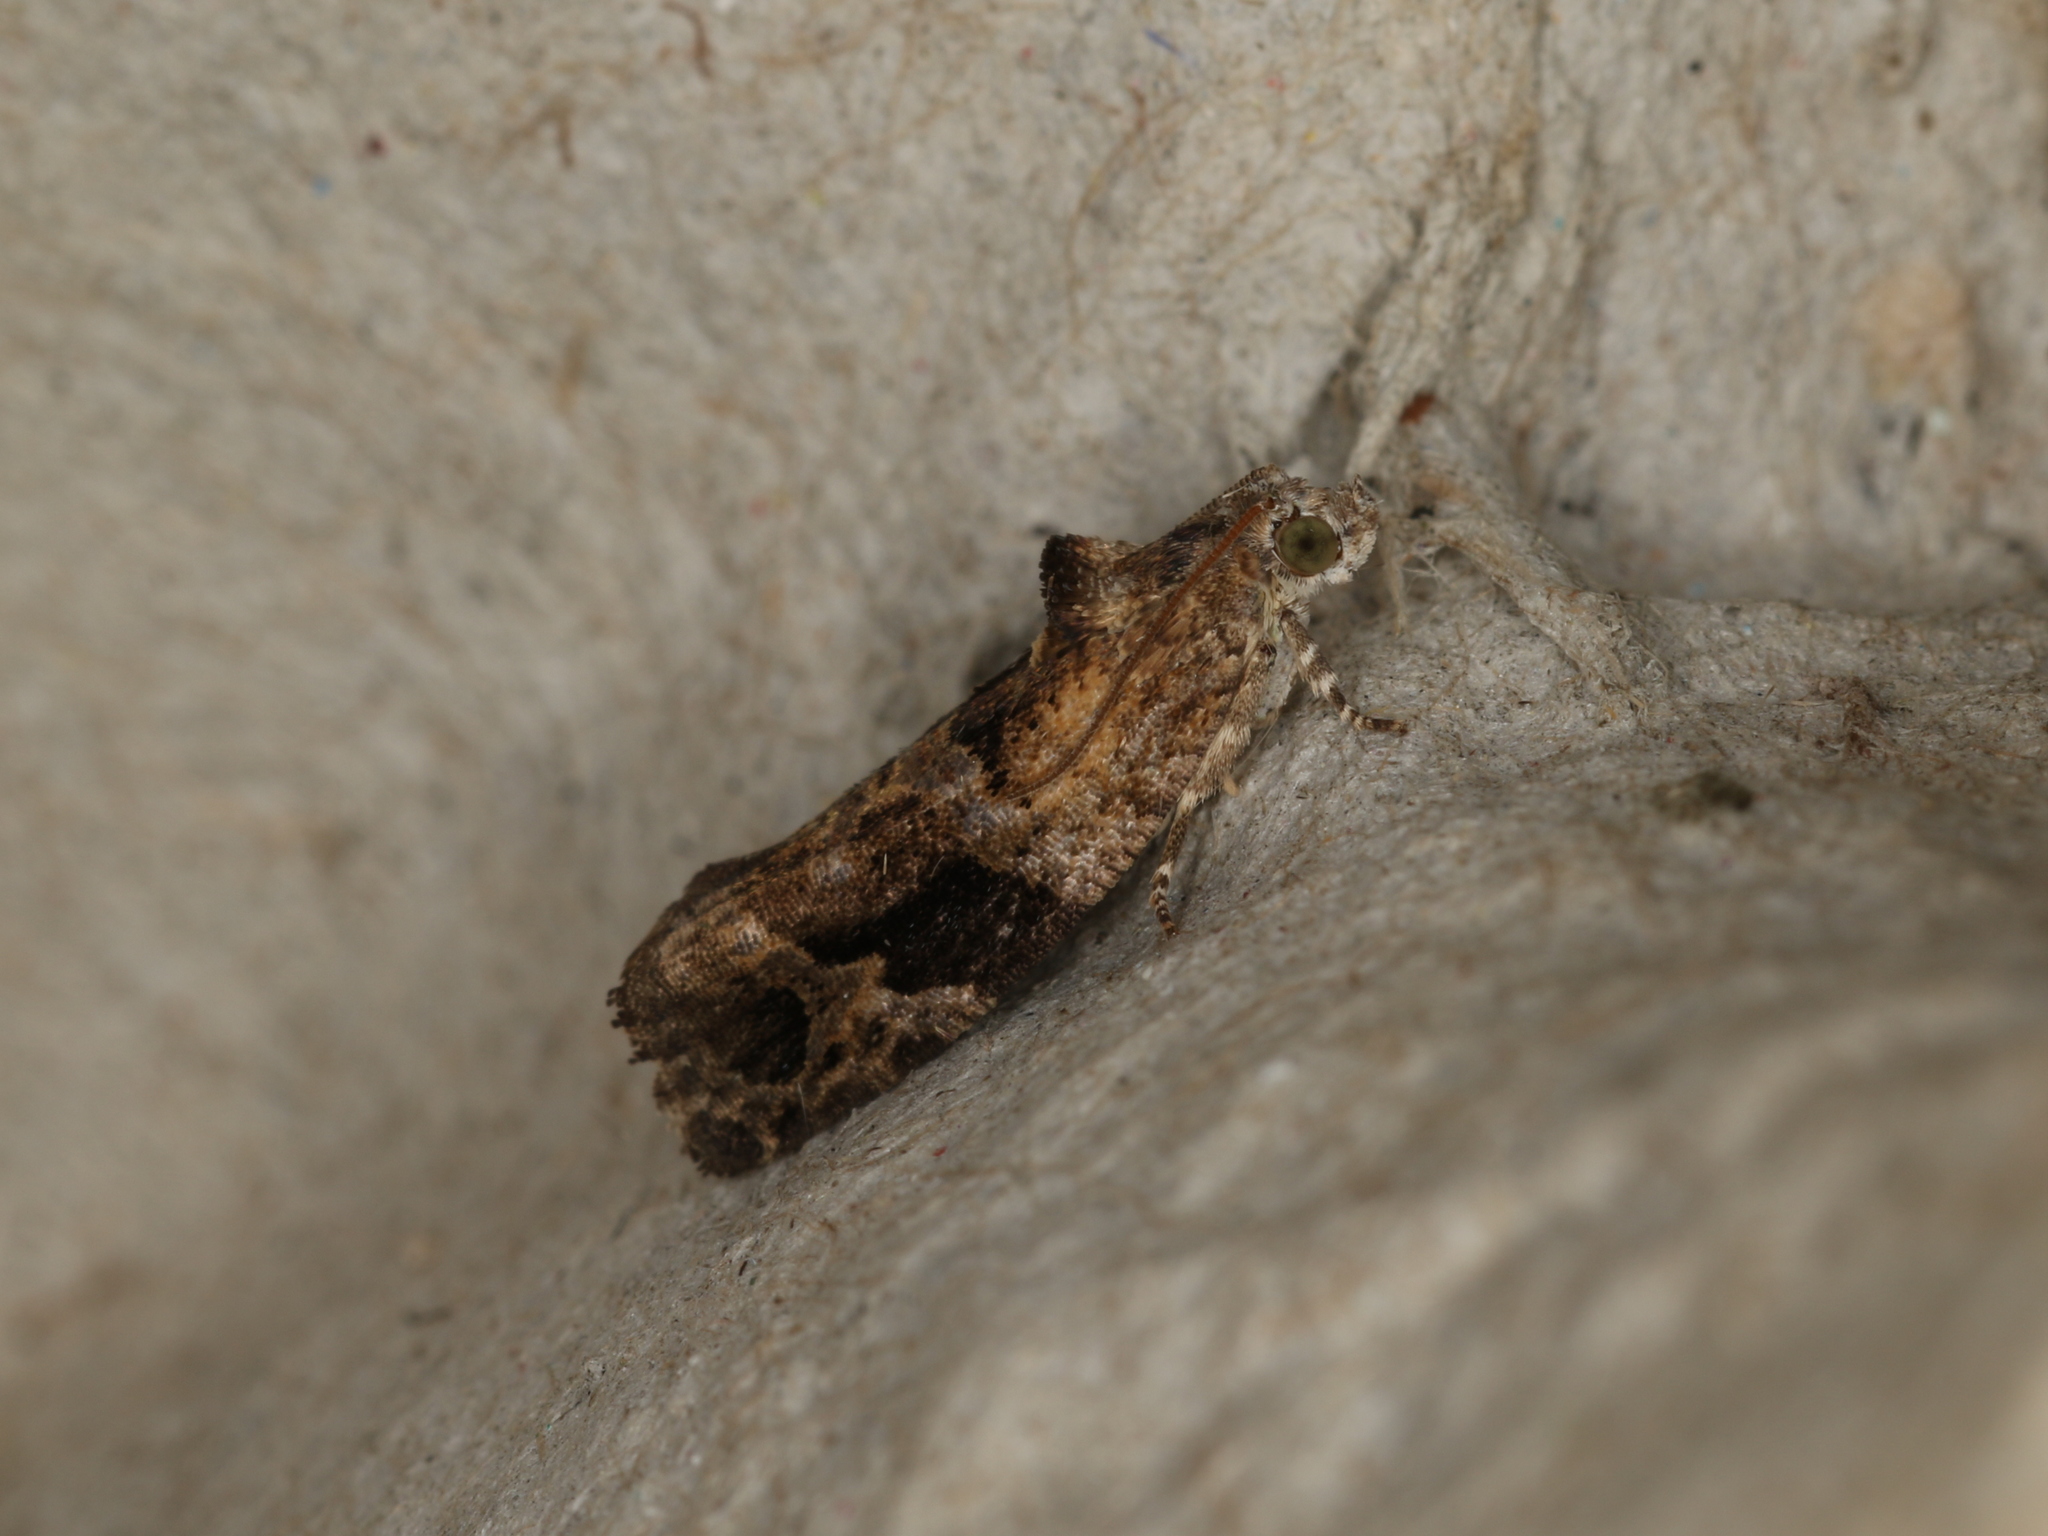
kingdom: Animalia
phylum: Arthropoda
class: Insecta
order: Lepidoptera
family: Tortricidae
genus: Eudemis
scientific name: Eudemis porphyrana
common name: Apple marble
